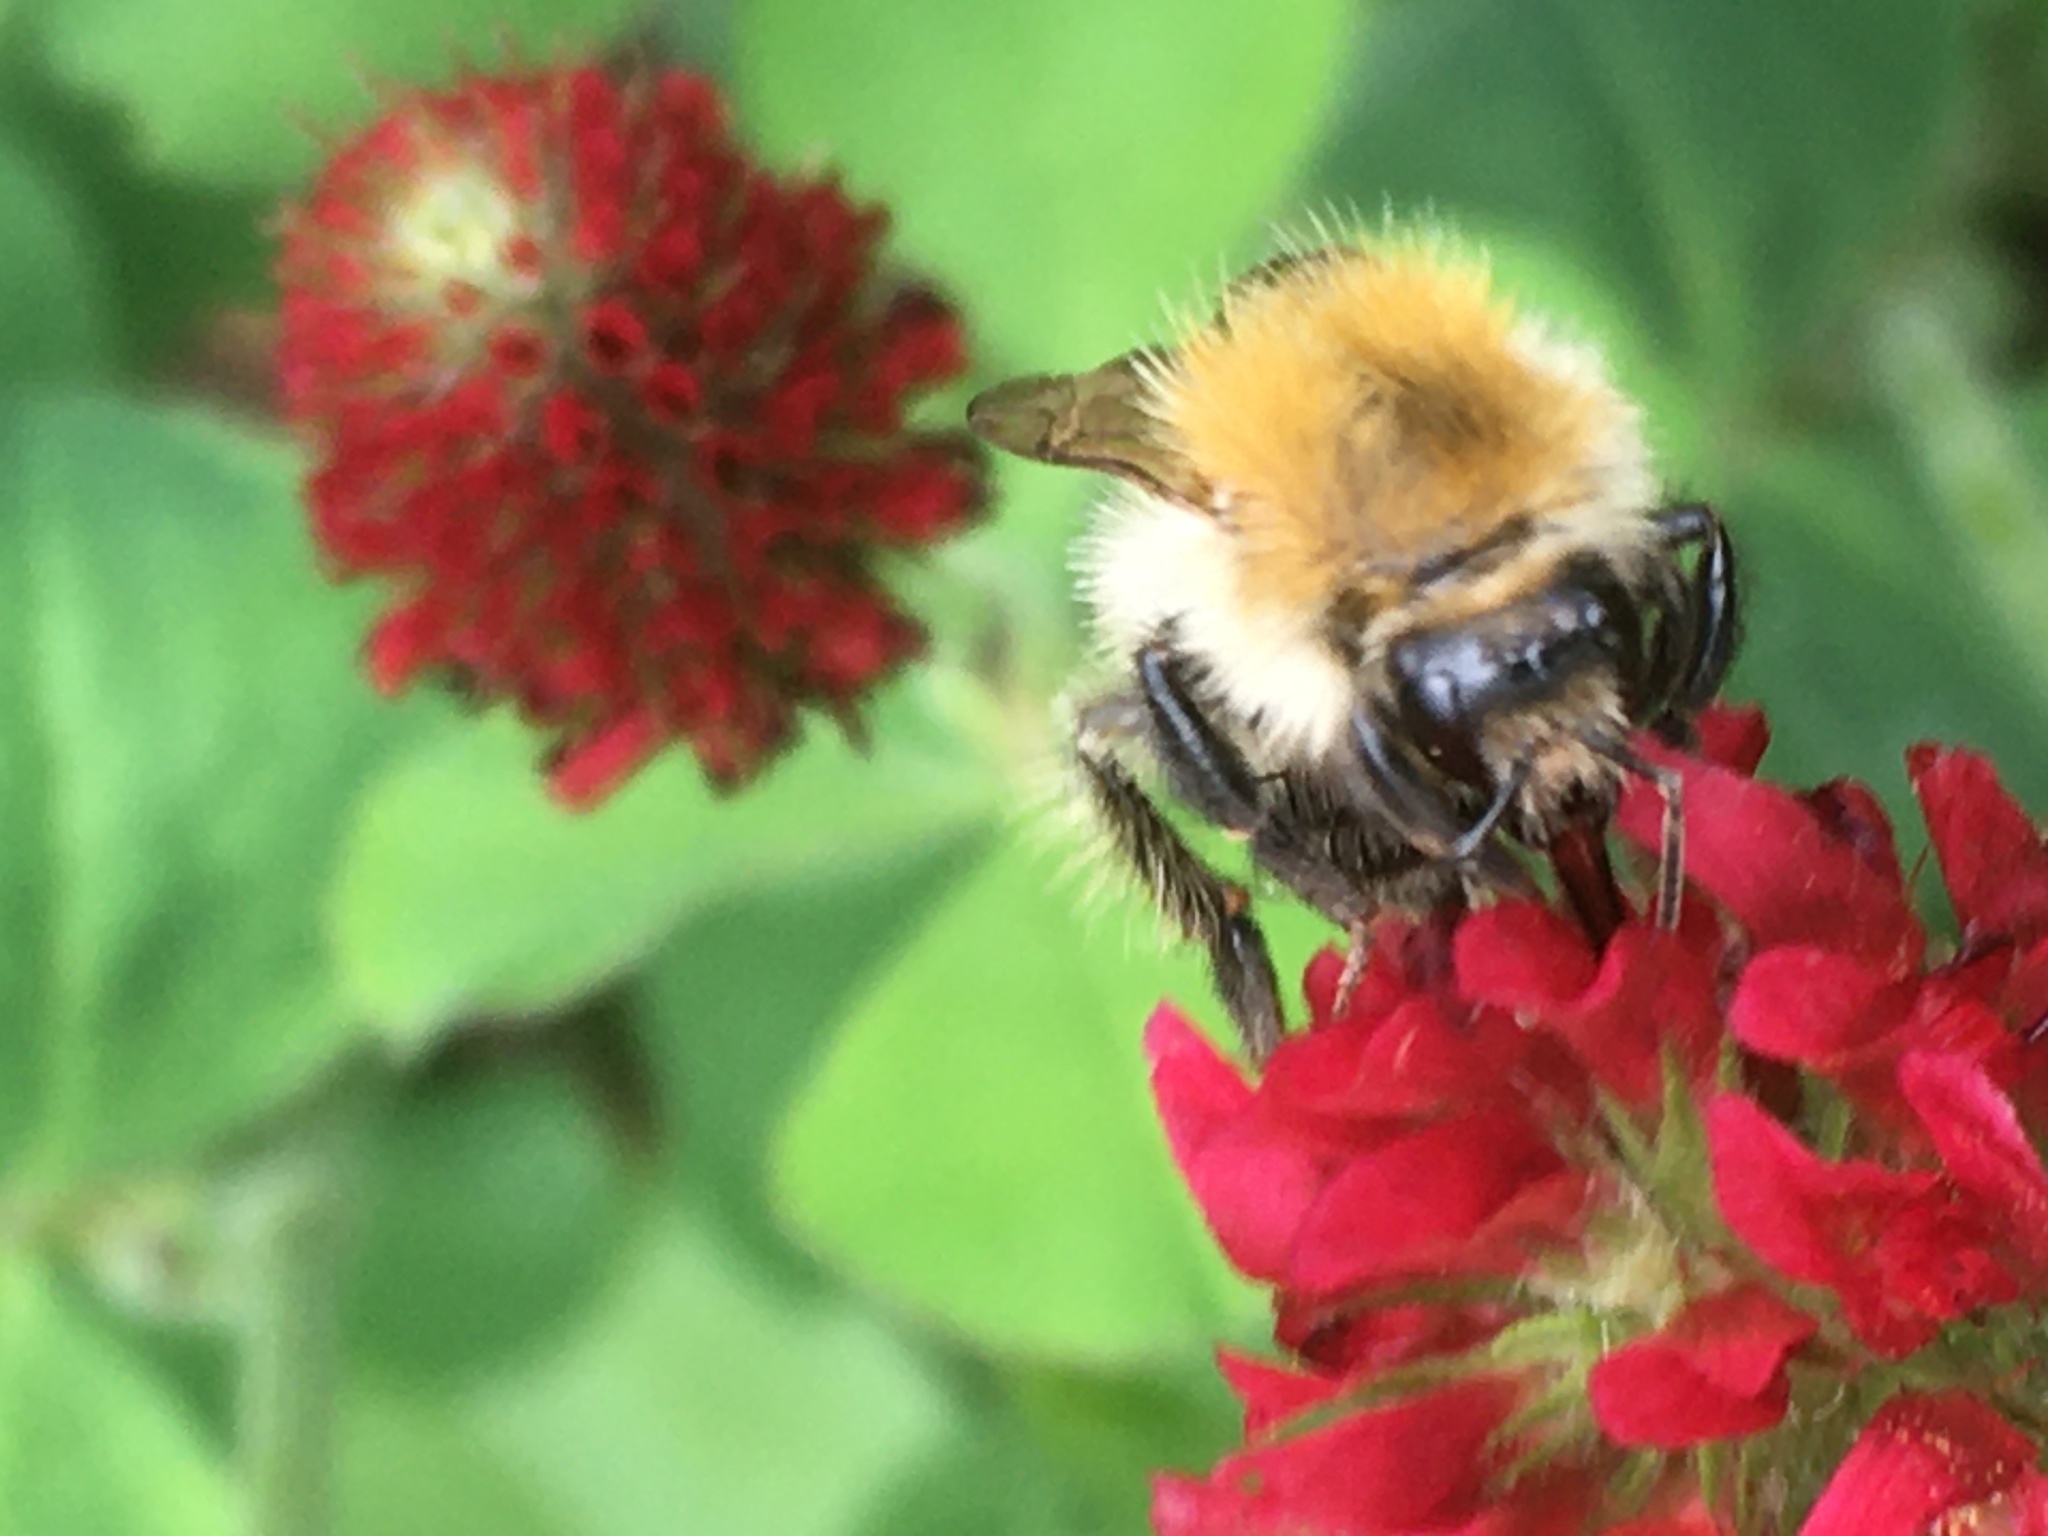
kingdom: Animalia
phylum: Arthropoda
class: Insecta
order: Hymenoptera
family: Apidae
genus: Bombus
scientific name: Bombus pascuorum
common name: Common carder bee
